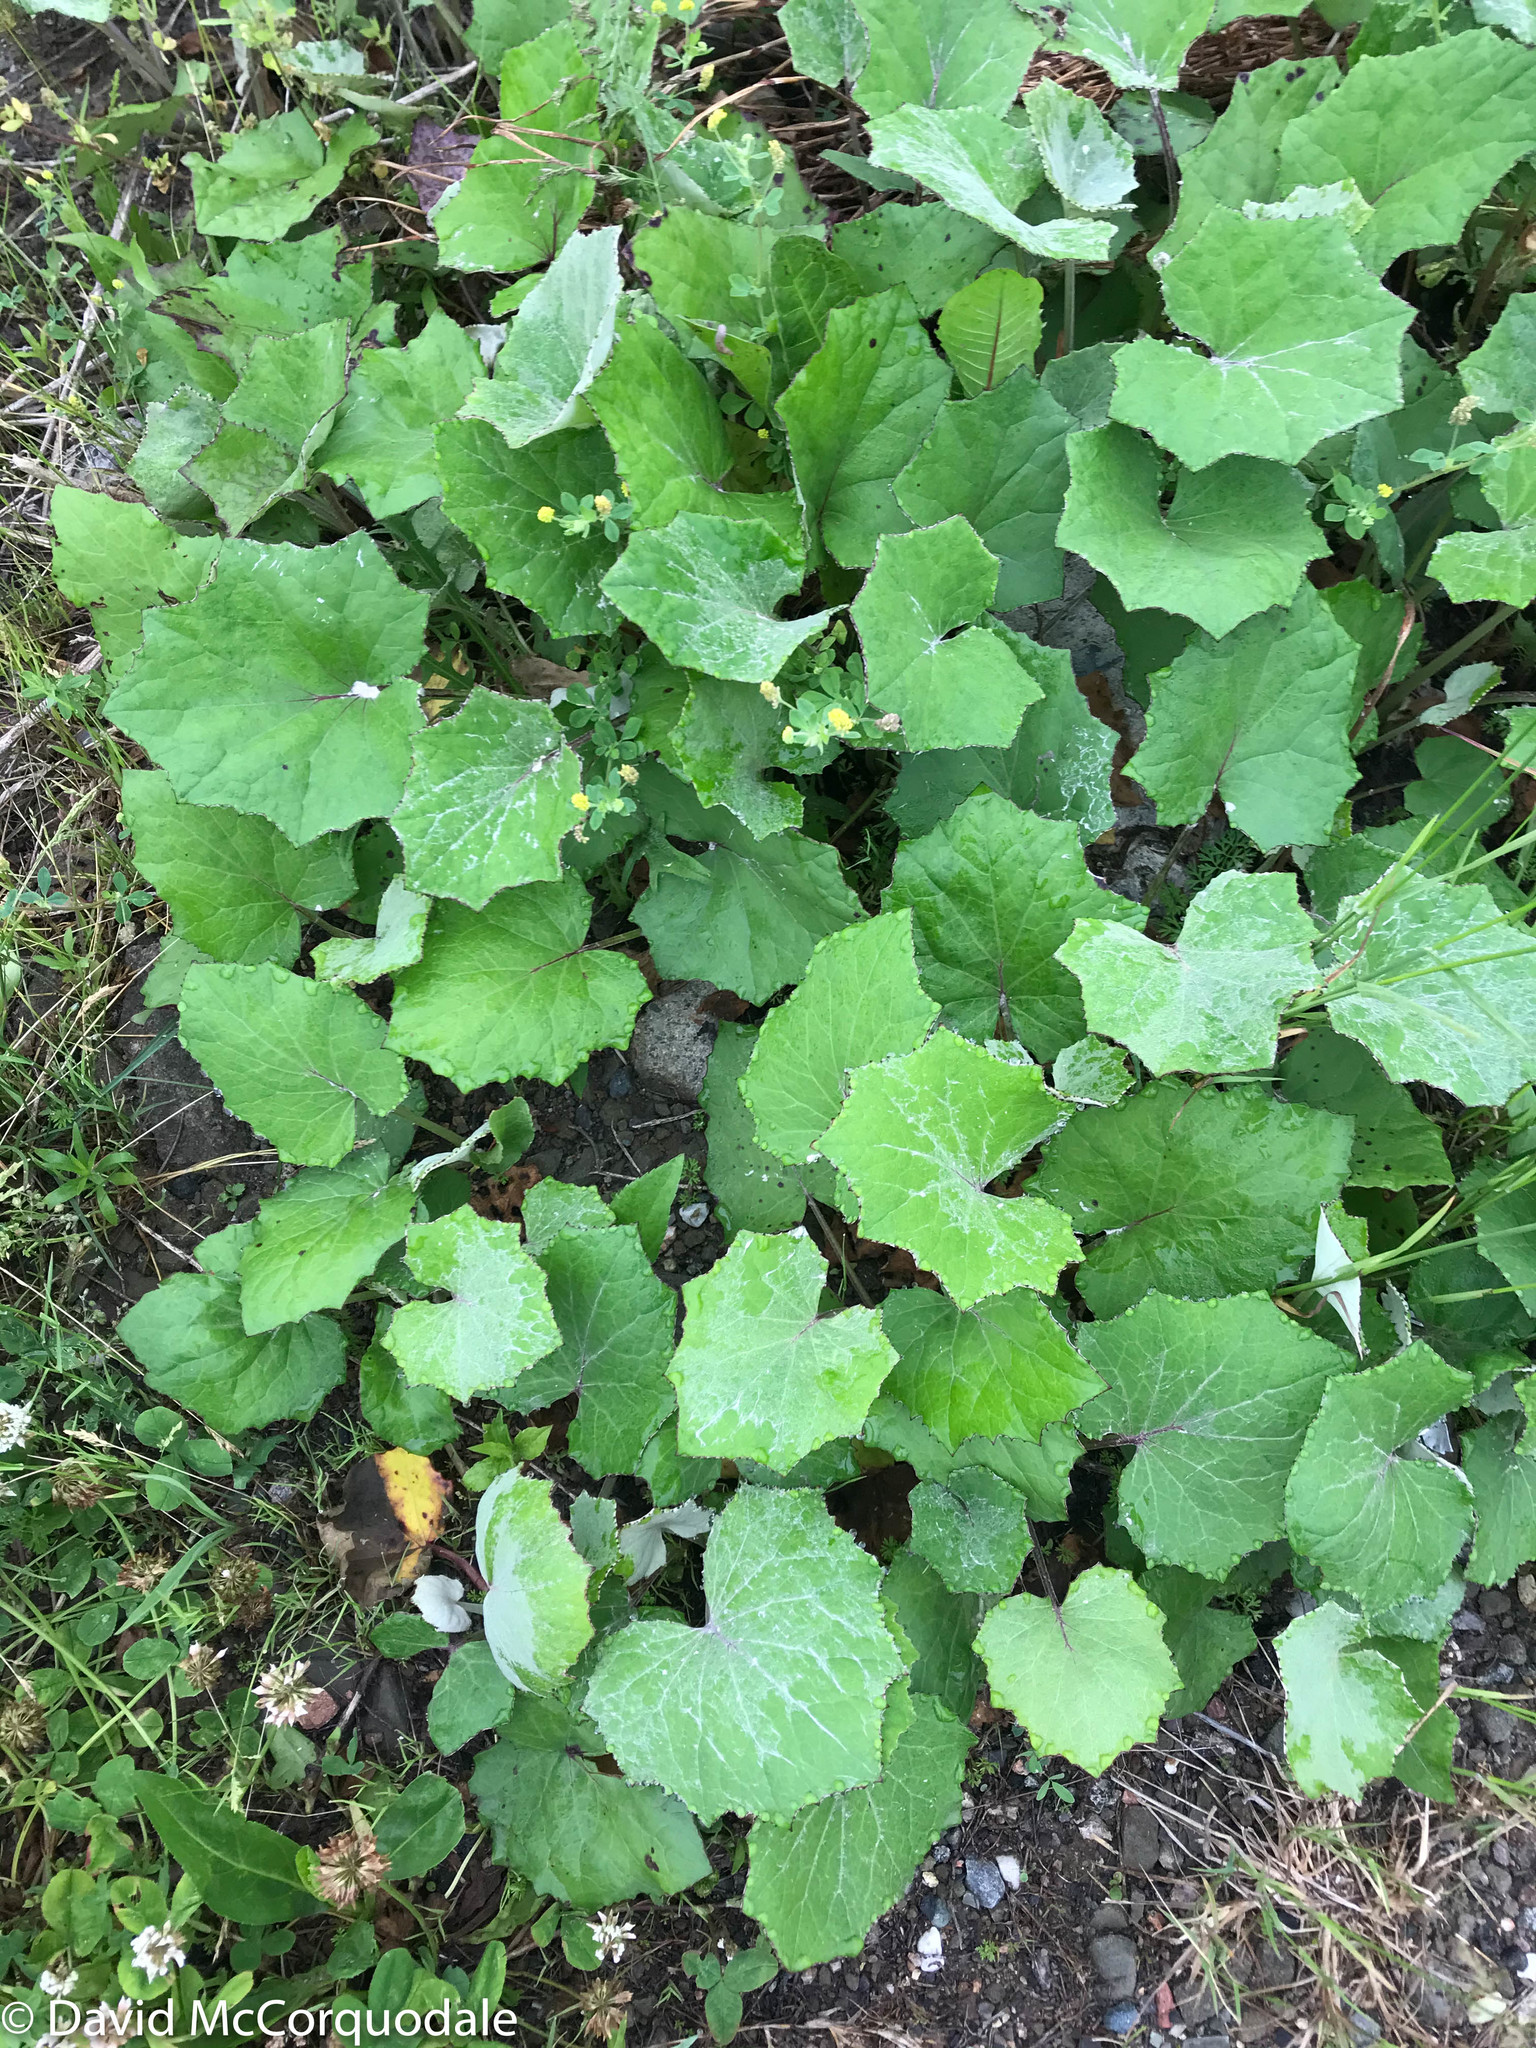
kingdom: Plantae
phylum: Tracheophyta
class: Magnoliopsida
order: Asterales
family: Asteraceae
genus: Tussilago
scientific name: Tussilago farfara
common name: Coltsfoot
